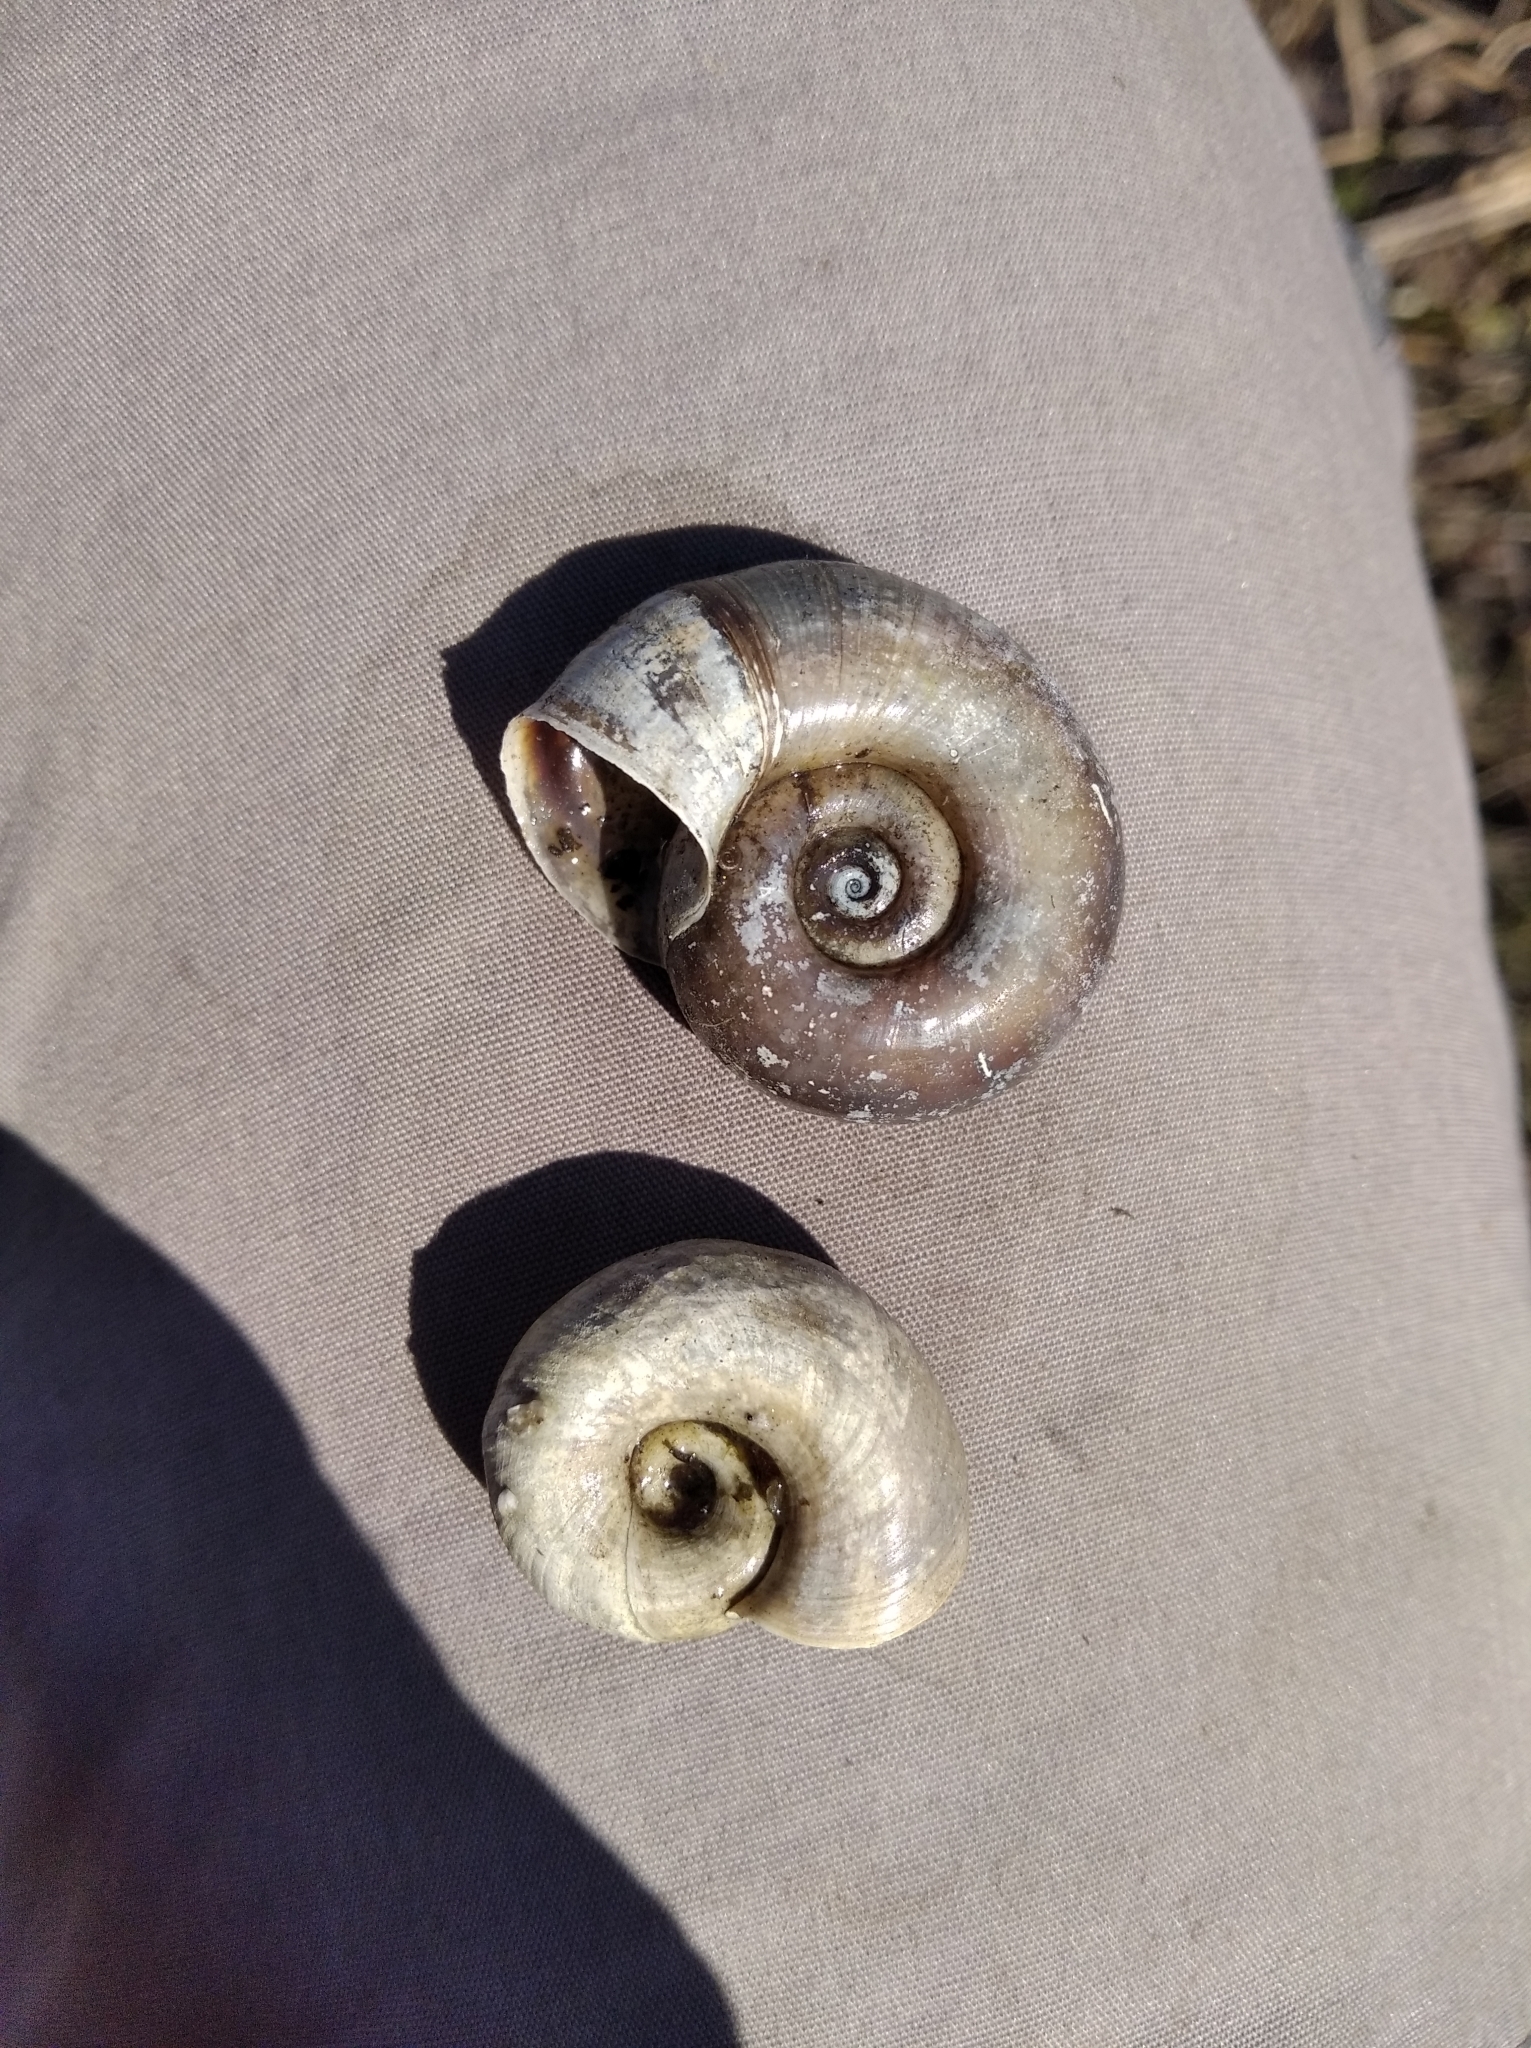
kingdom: Animalia
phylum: Mollusca
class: Gastropoda
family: Planorbidae
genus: Planorbarius
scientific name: Planorbarius corneus
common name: Great ramshorn
